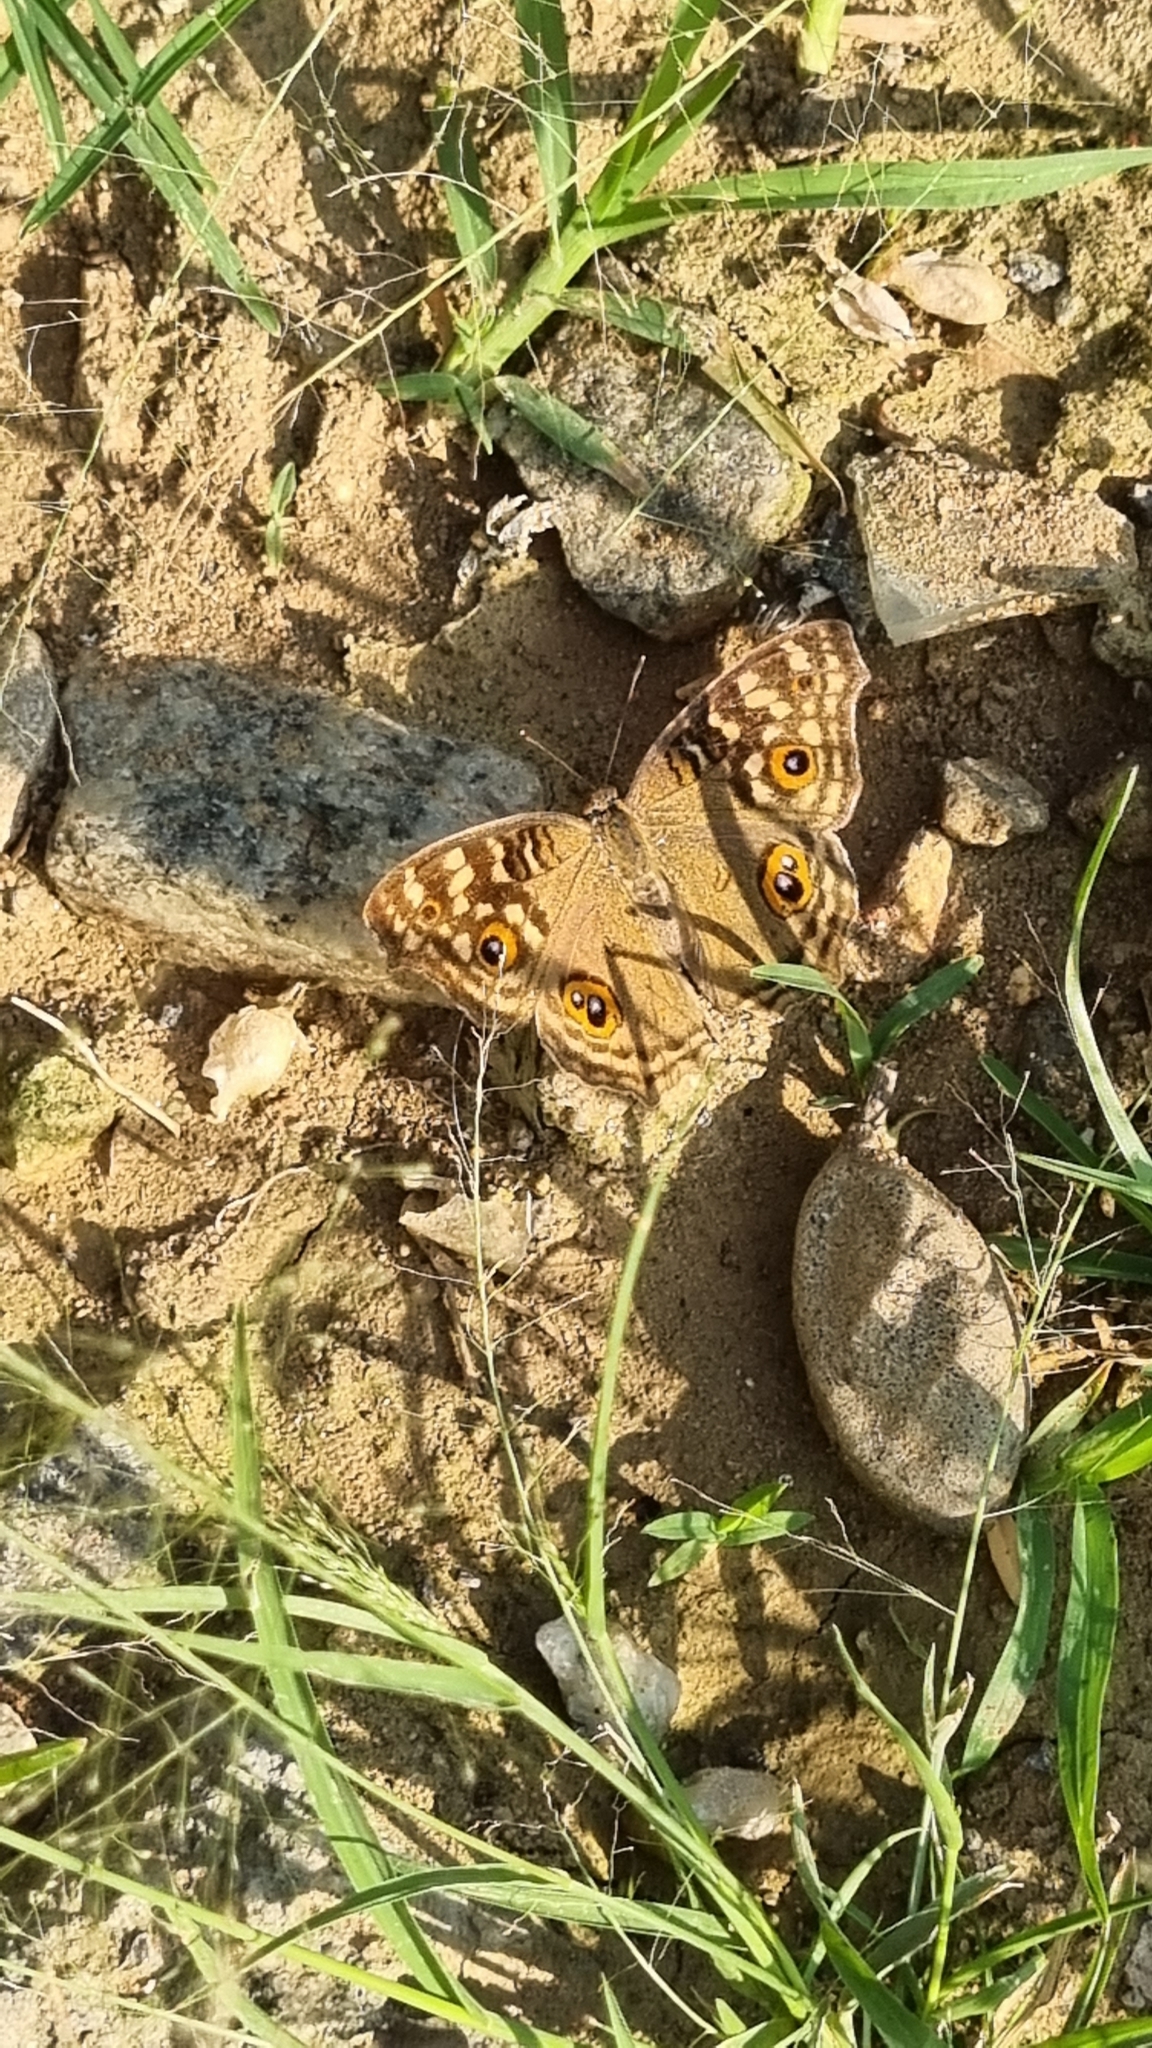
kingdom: Animalia
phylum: Arthropoda
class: Insecta
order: Lepidoptera
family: Nymphalidae
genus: Junonia
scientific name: Junonia lemonias
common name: Lemon pansy
